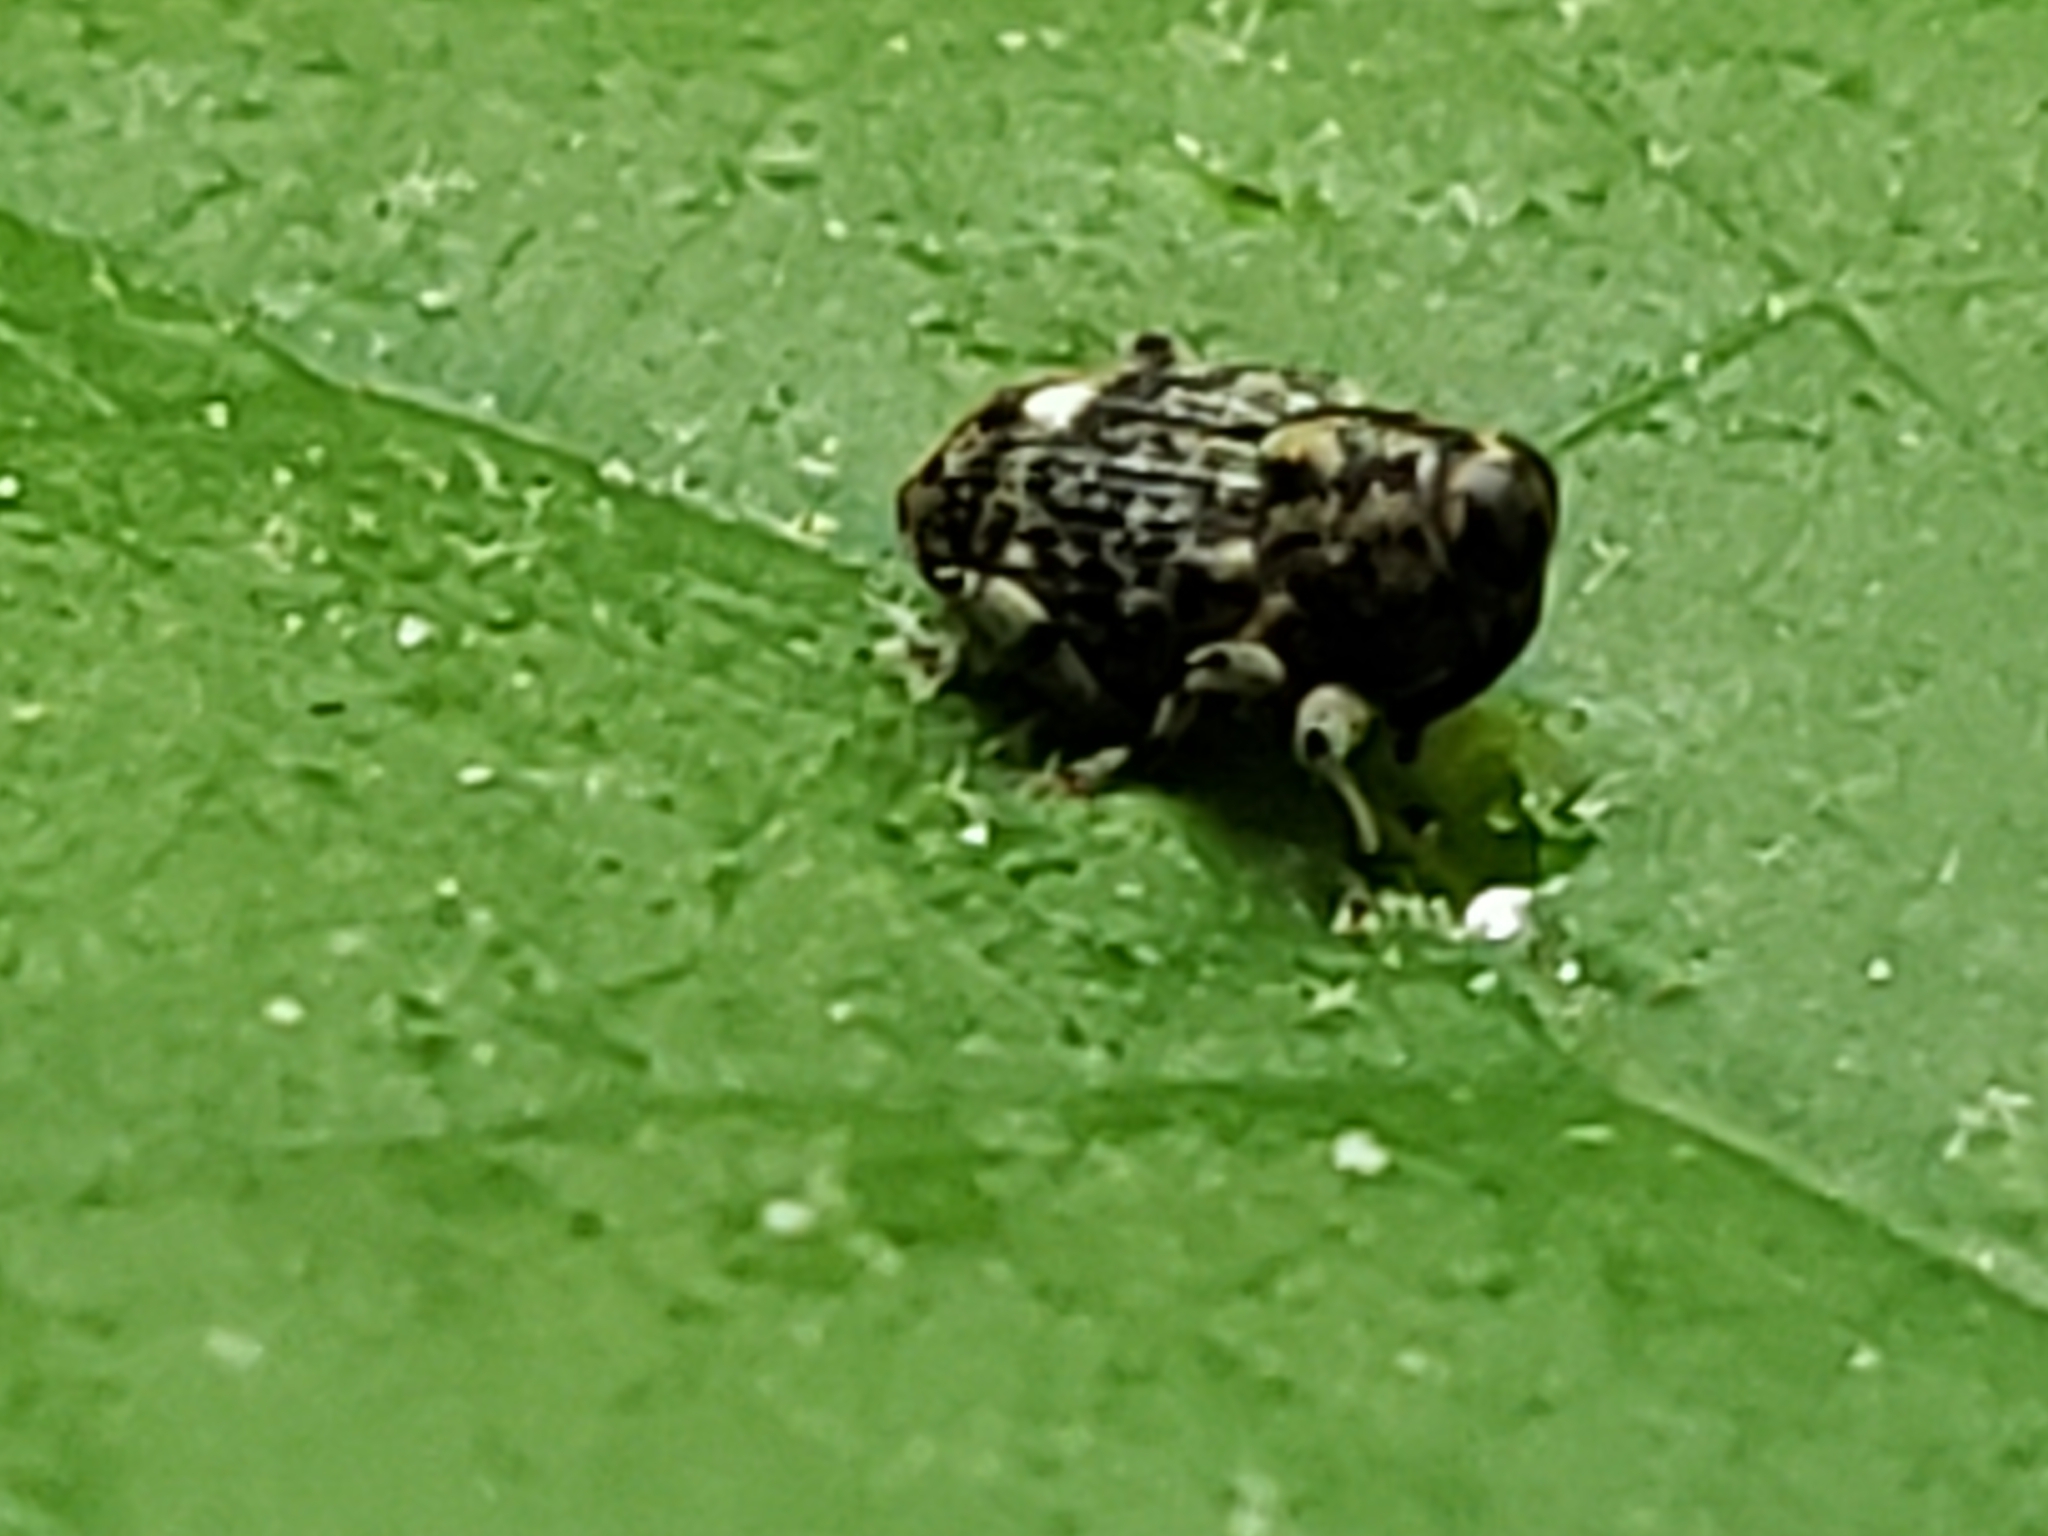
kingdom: Animalia
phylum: Arthropoda
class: Insecta
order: Coleoptera
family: Curculionidae
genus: Lechriops
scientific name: Lechriops oculatus
